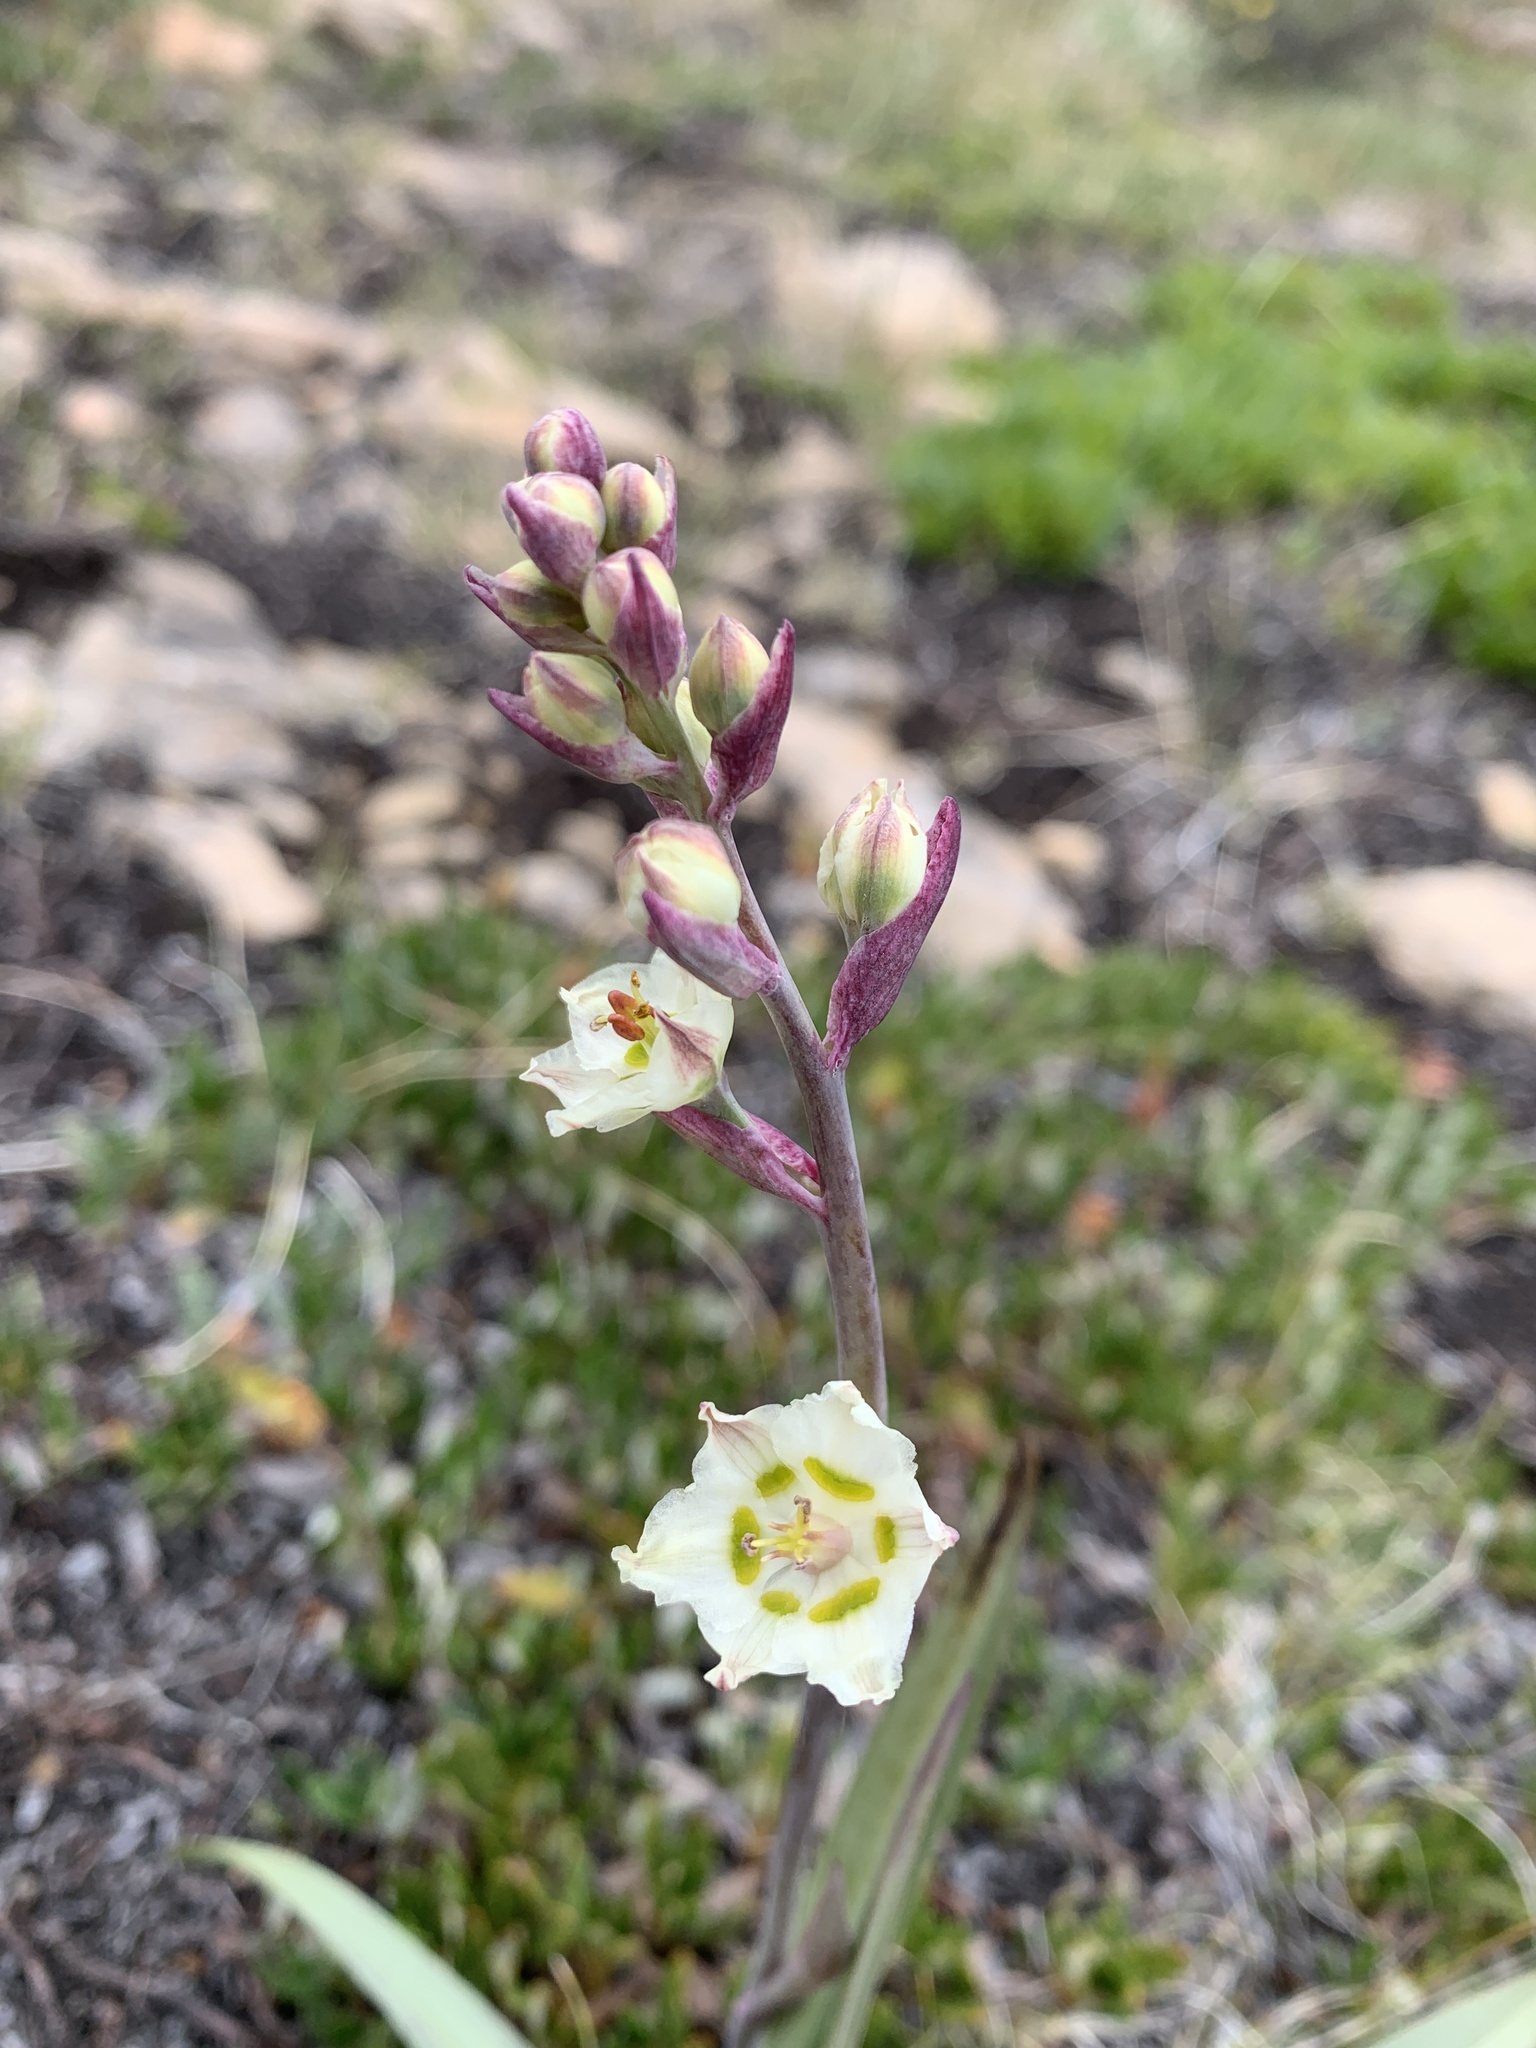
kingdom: Plantae
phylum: Tracheophyta
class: Liliopsida
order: Liliales
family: Melanthiaceae
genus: Anticlea
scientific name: Anticlea elegans
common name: Mountain death camas
